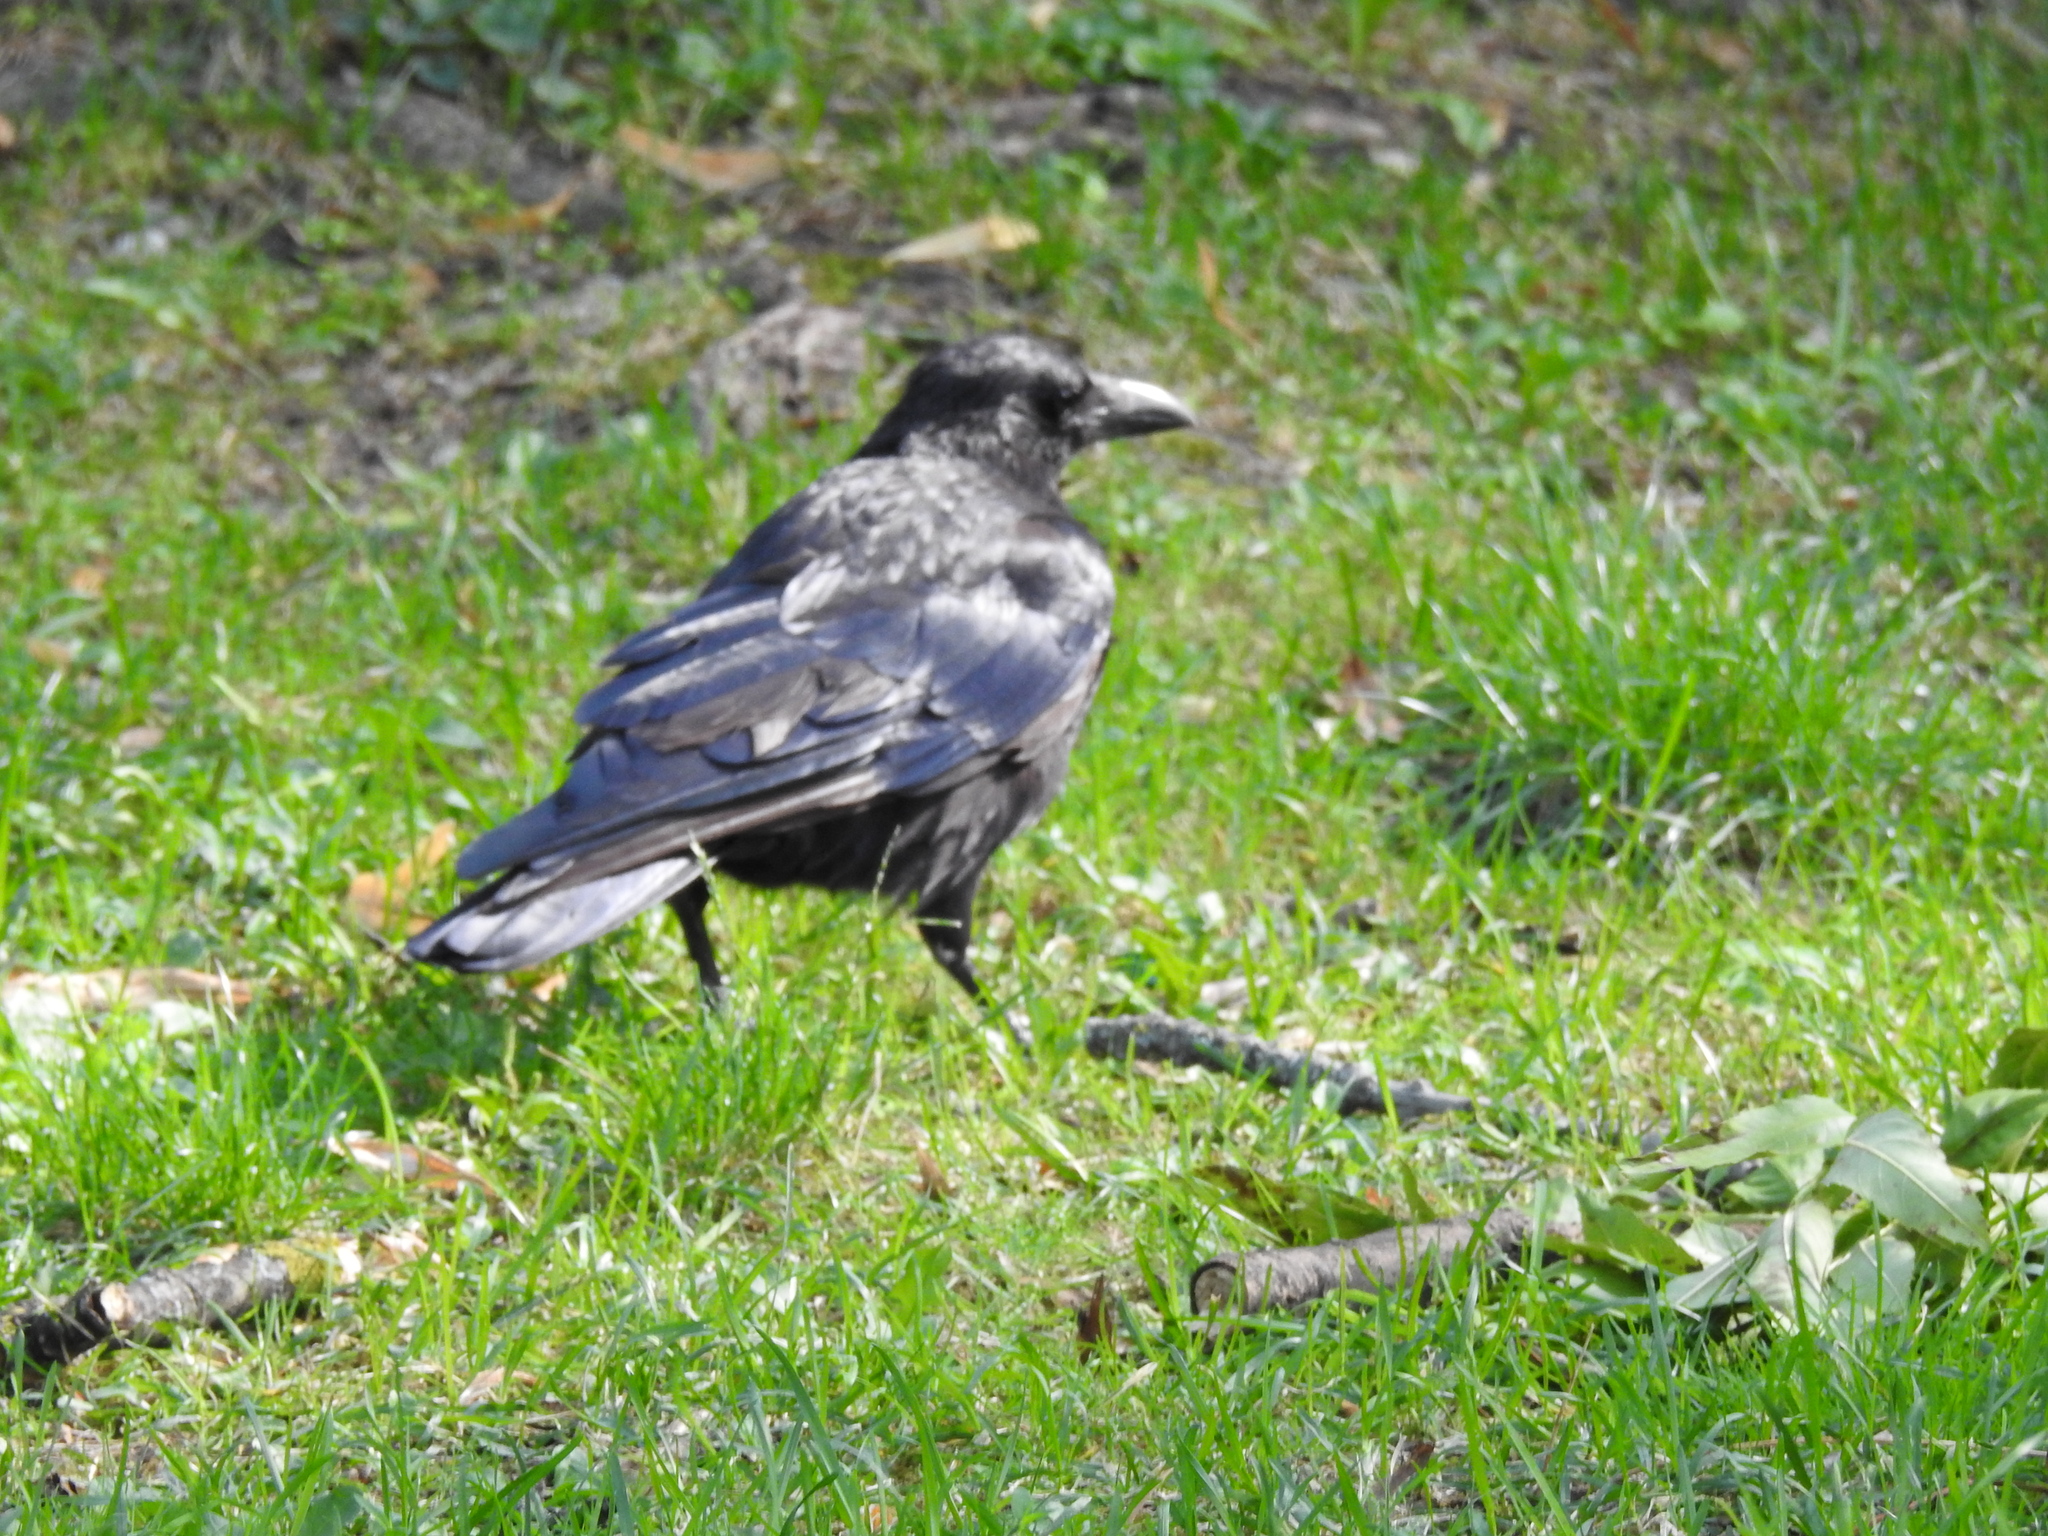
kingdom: Animalia
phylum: Chordata
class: Aves
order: Passeriformes
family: Corvidae
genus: Corvus
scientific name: Corvus corone
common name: Carrion crow
